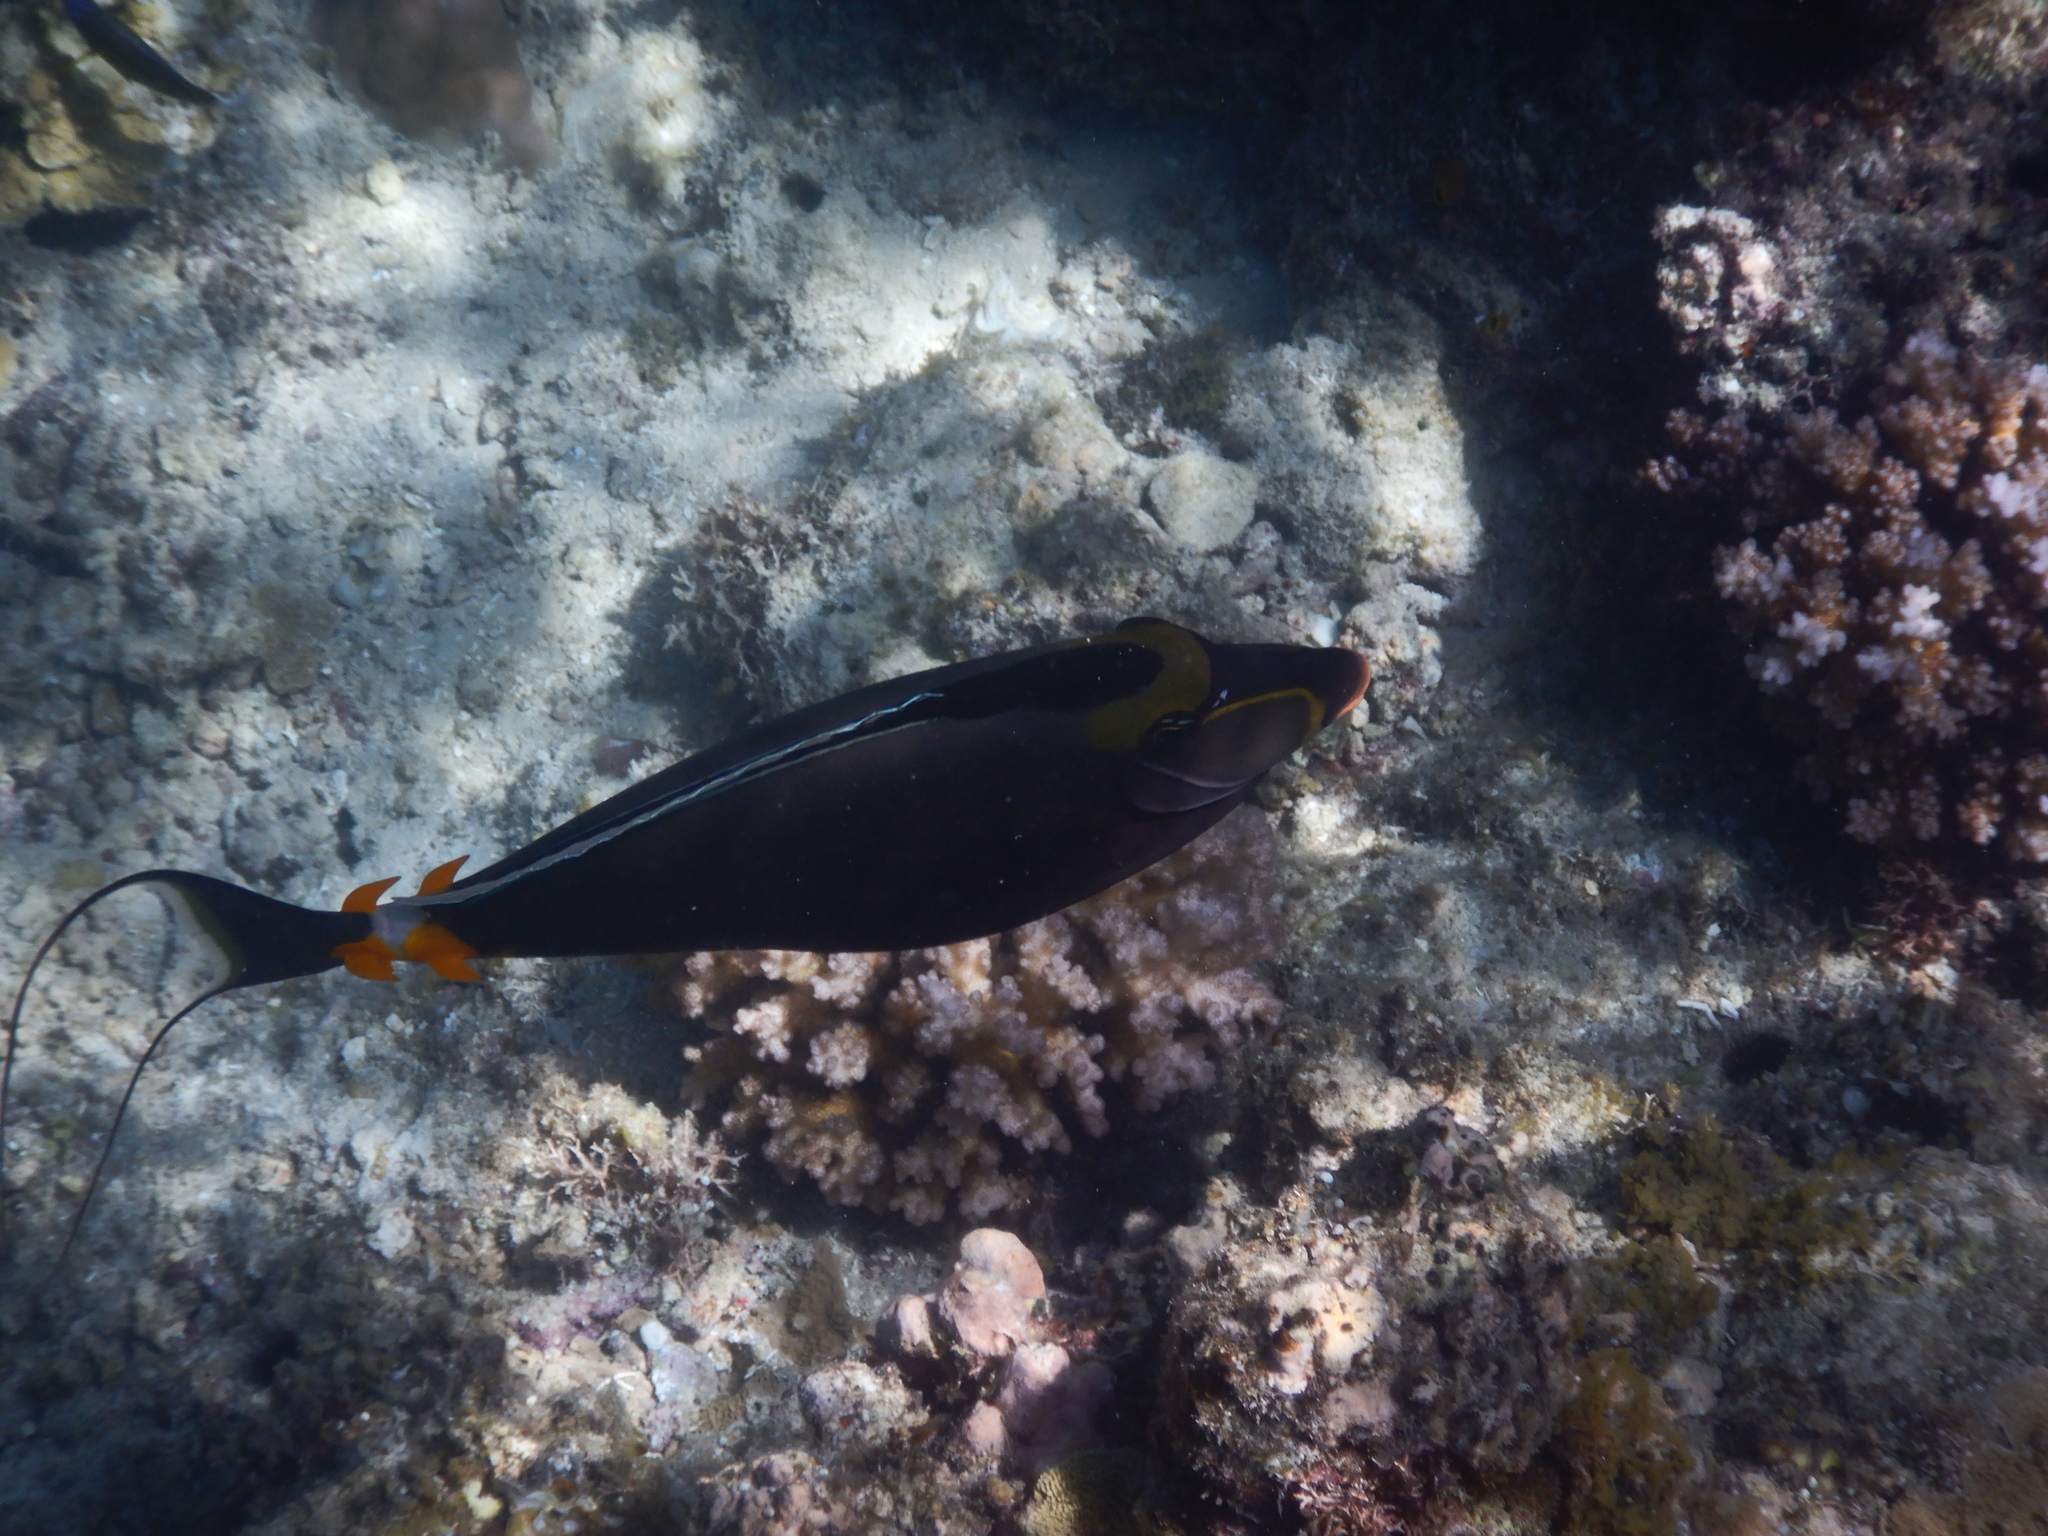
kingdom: Animalia
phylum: Chordata
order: Perciformes
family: Acanthuridae
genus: Naso
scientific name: Naso lituratus
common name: Orangespine unicornfish
